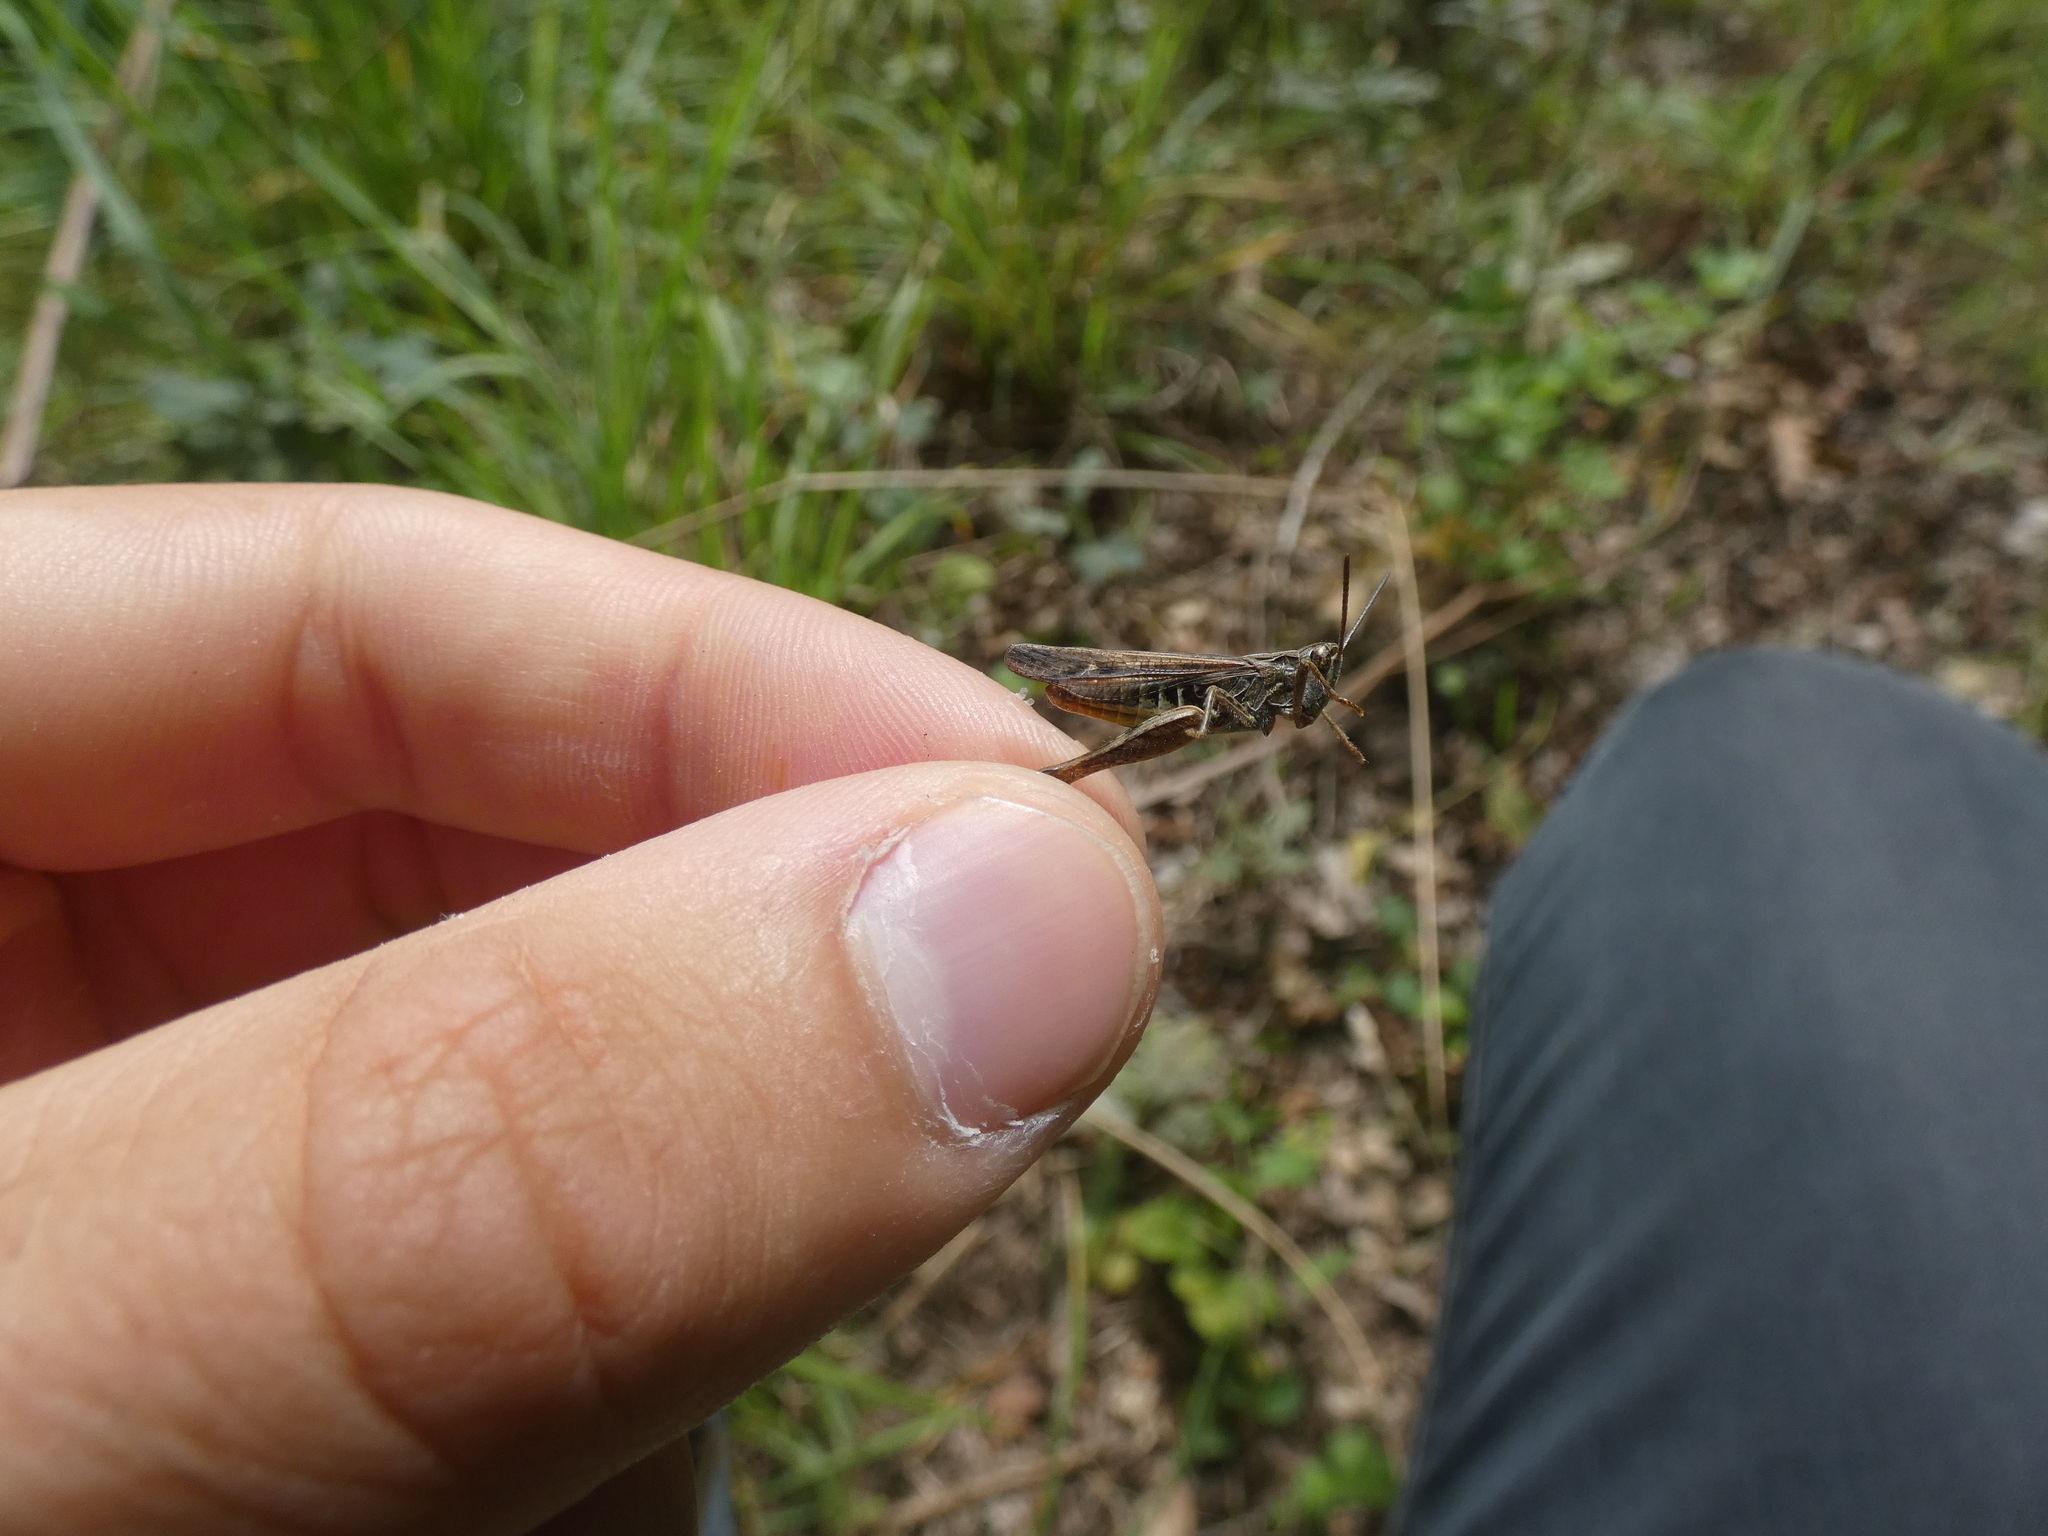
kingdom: Animalia
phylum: Arthropoda
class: Insecta
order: Orthoptera
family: Acrididae
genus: Chorthippus
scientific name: Chorthippus biguttulus
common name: Bow-winged grasshopper
